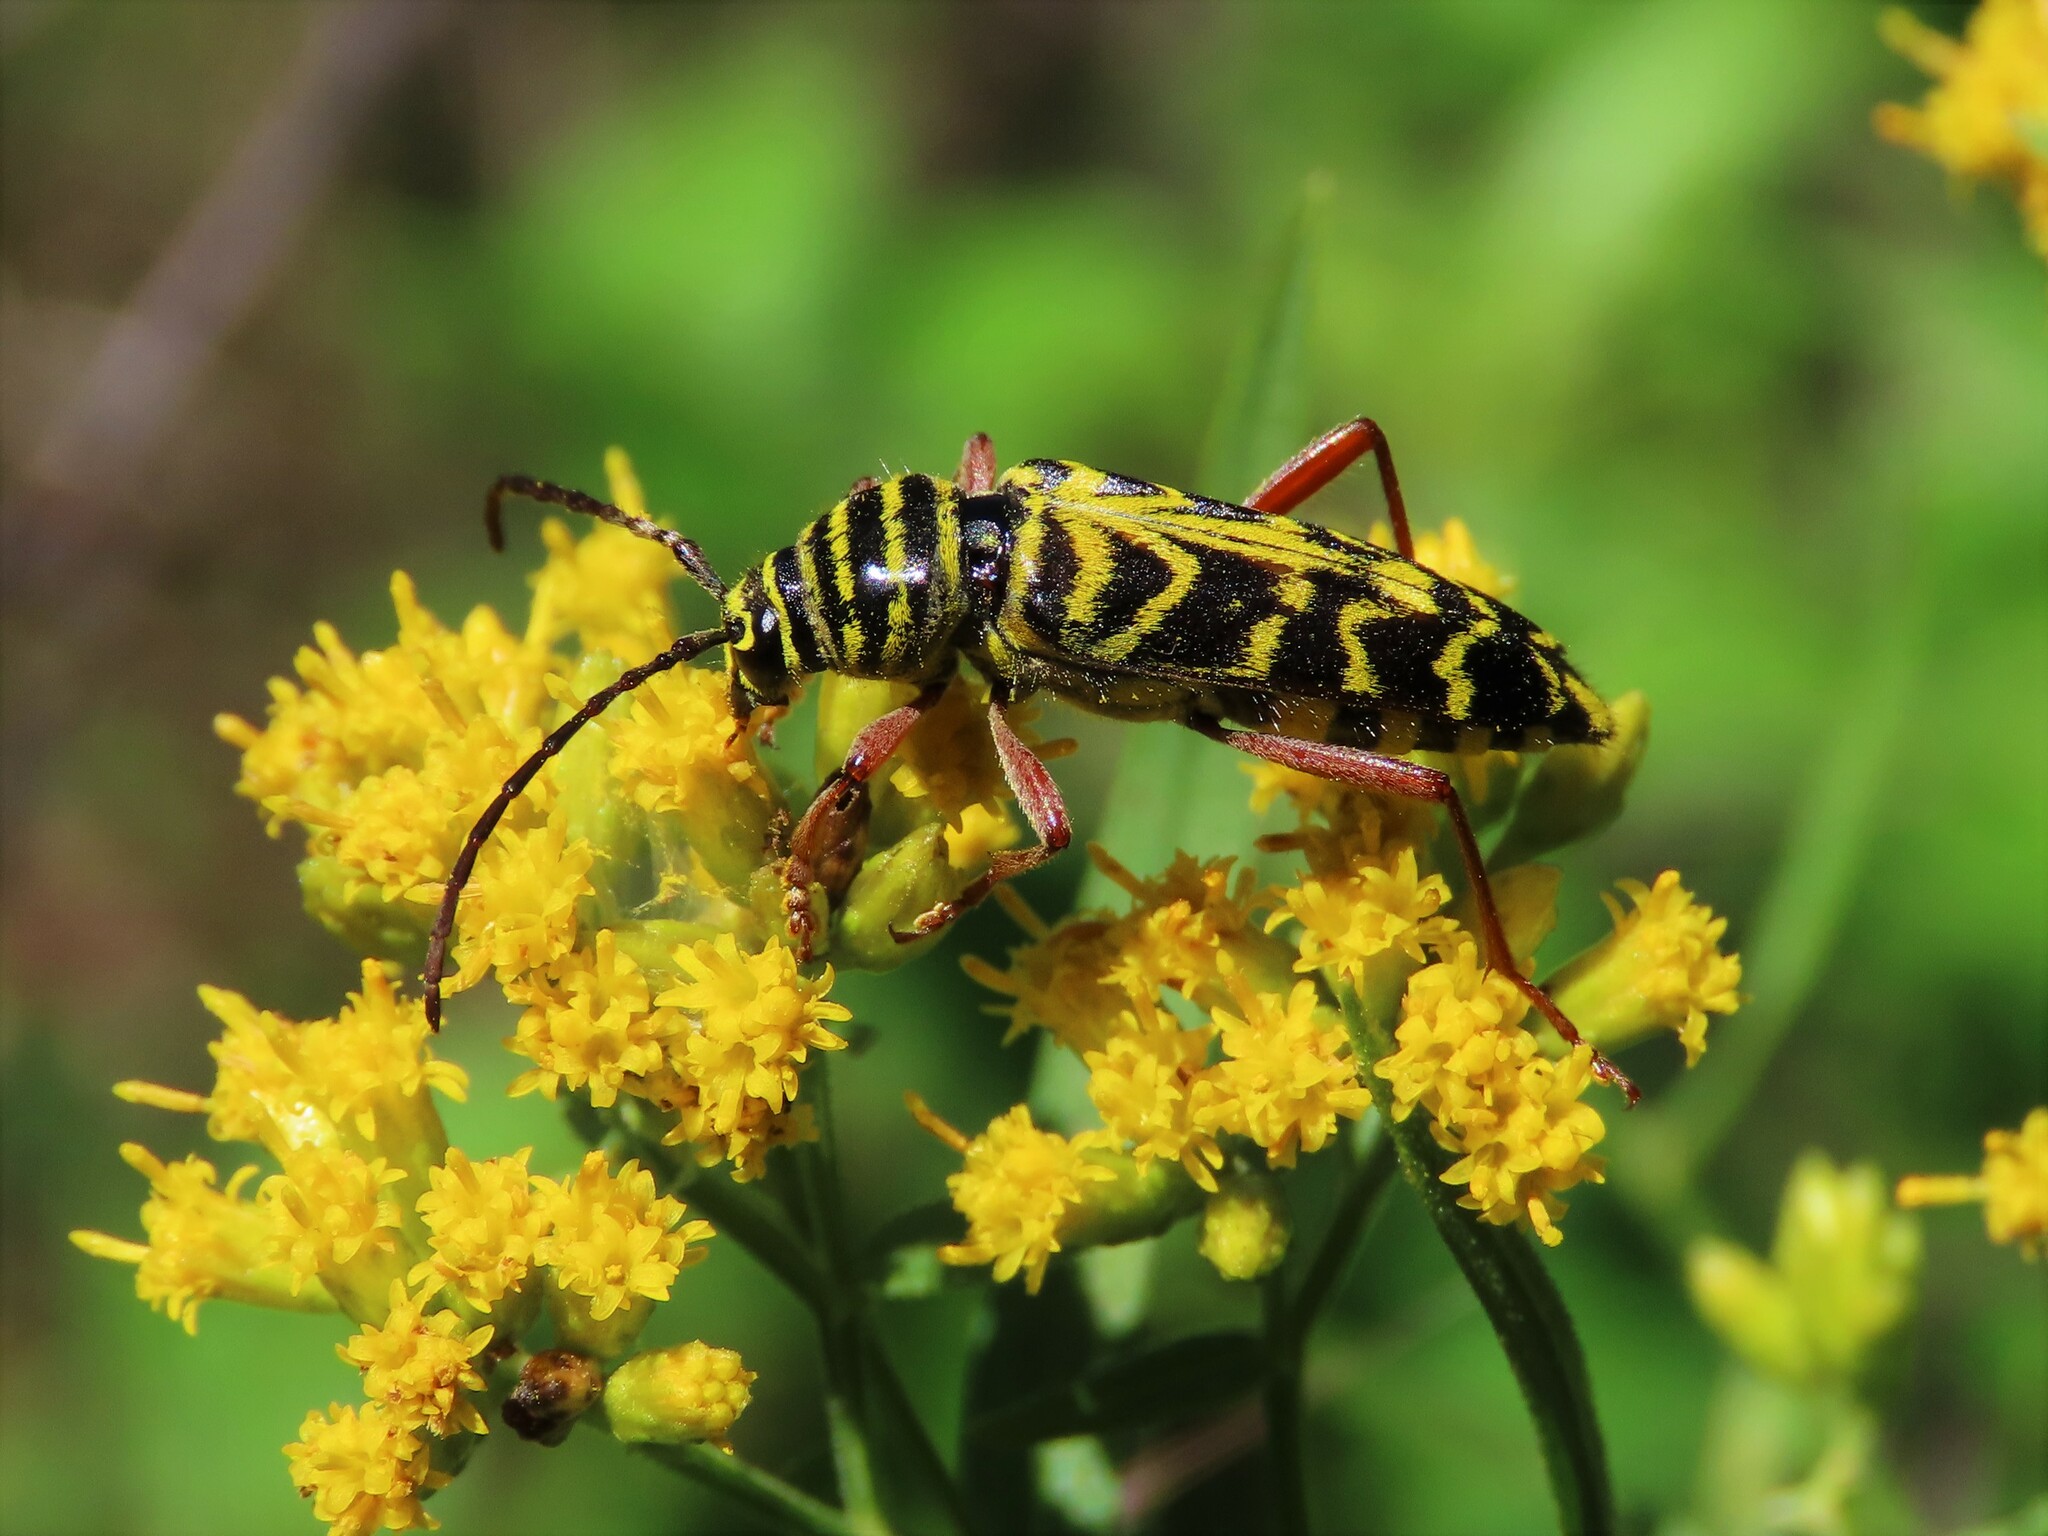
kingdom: Animalia
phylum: Arthropoda
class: Insecta
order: Coleoptera
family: Cerambycidae
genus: Megacyllene
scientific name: Megacyllene robiniae
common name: Locust borer
